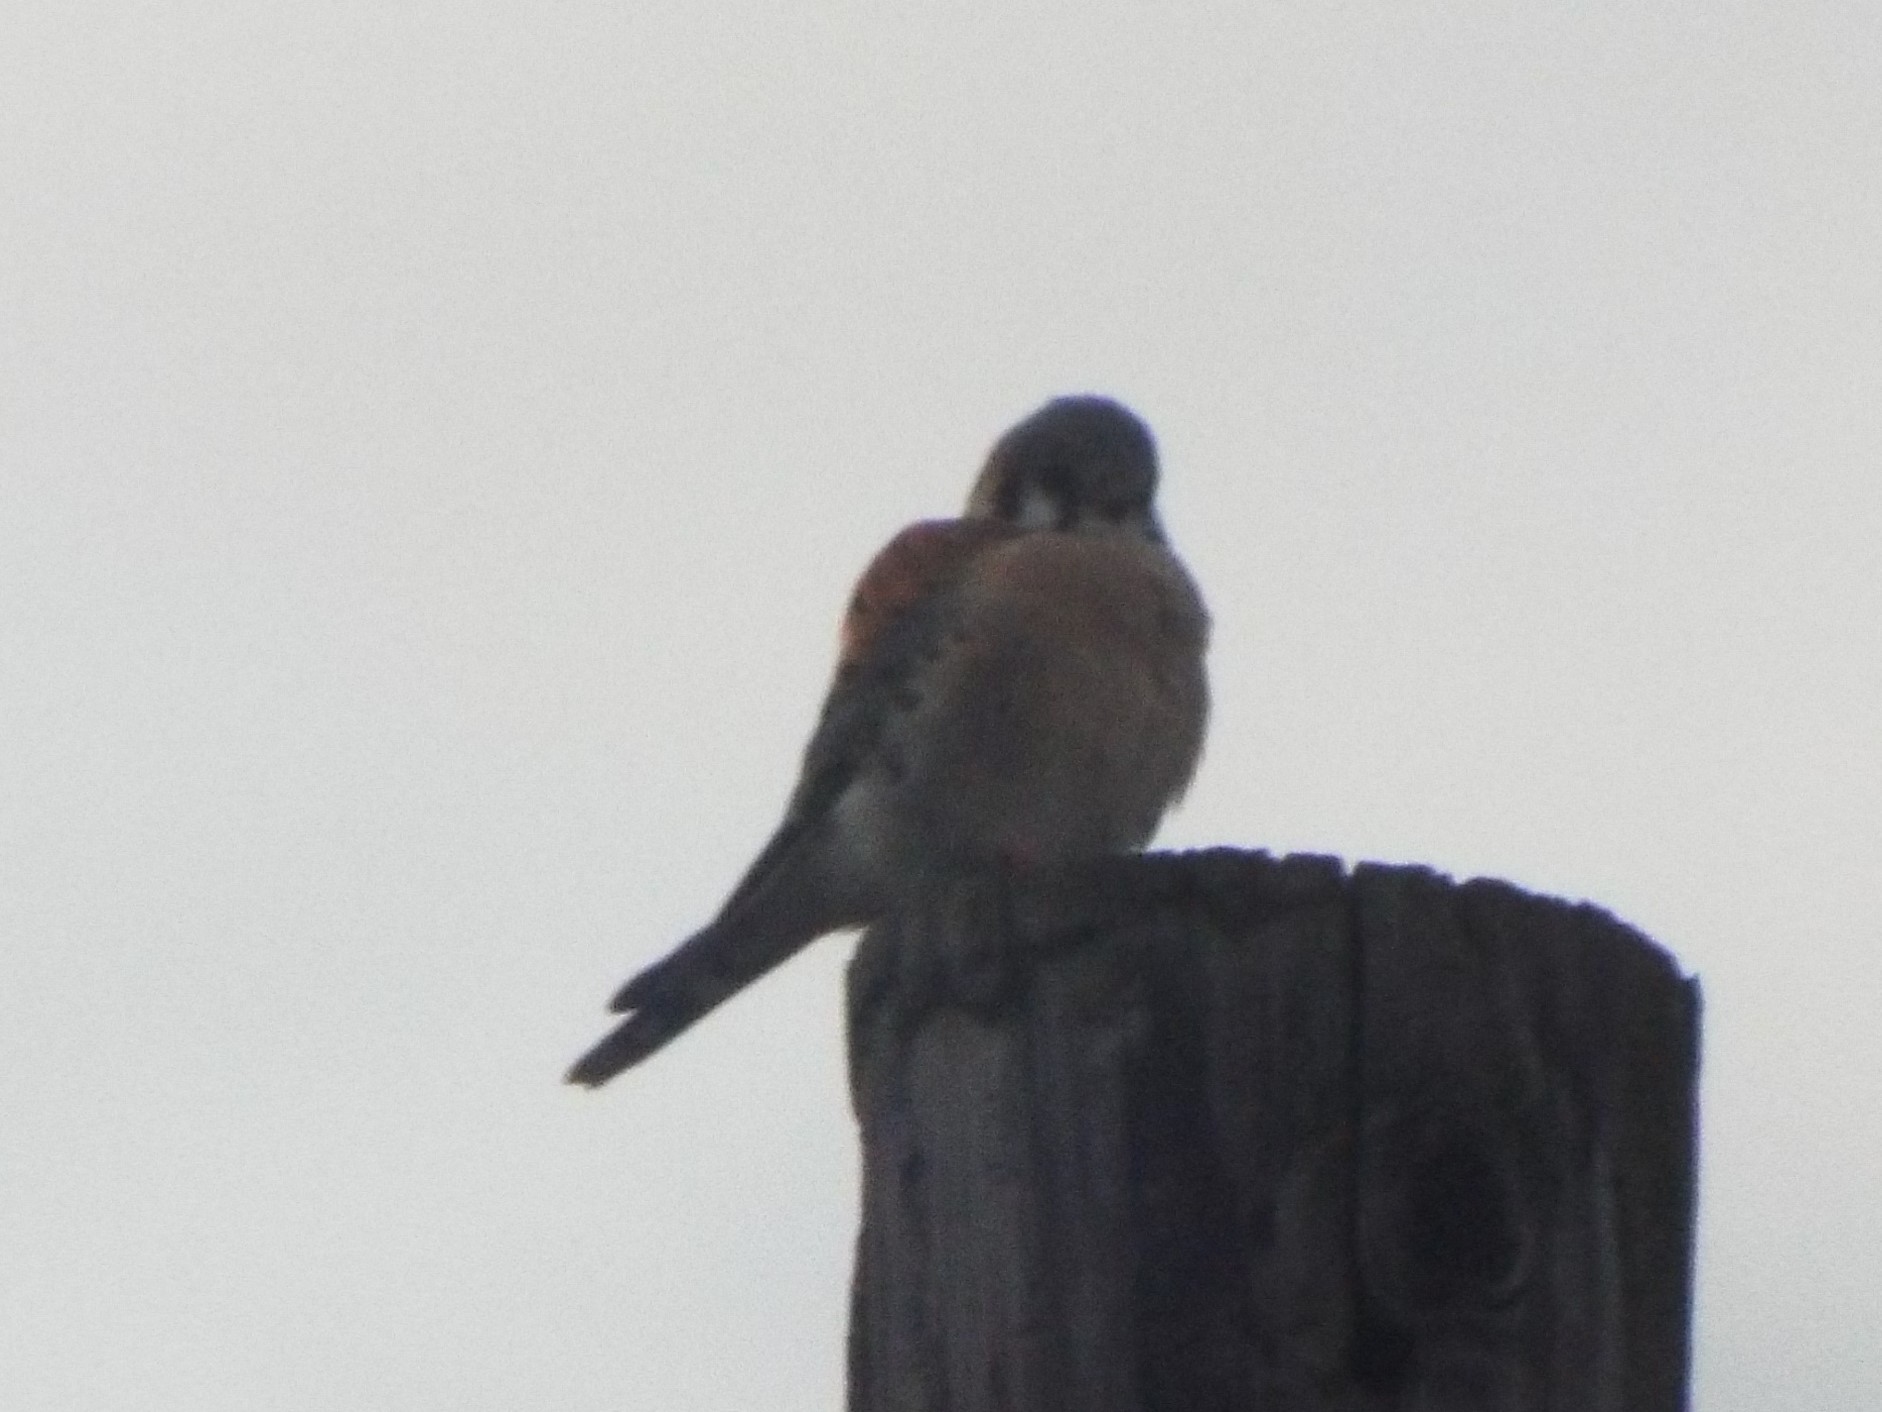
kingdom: Animalia
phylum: Chordata
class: Aves
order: Falconiformes
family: Falconidae
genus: Falco
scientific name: Falco sparverius
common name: American kestrel
